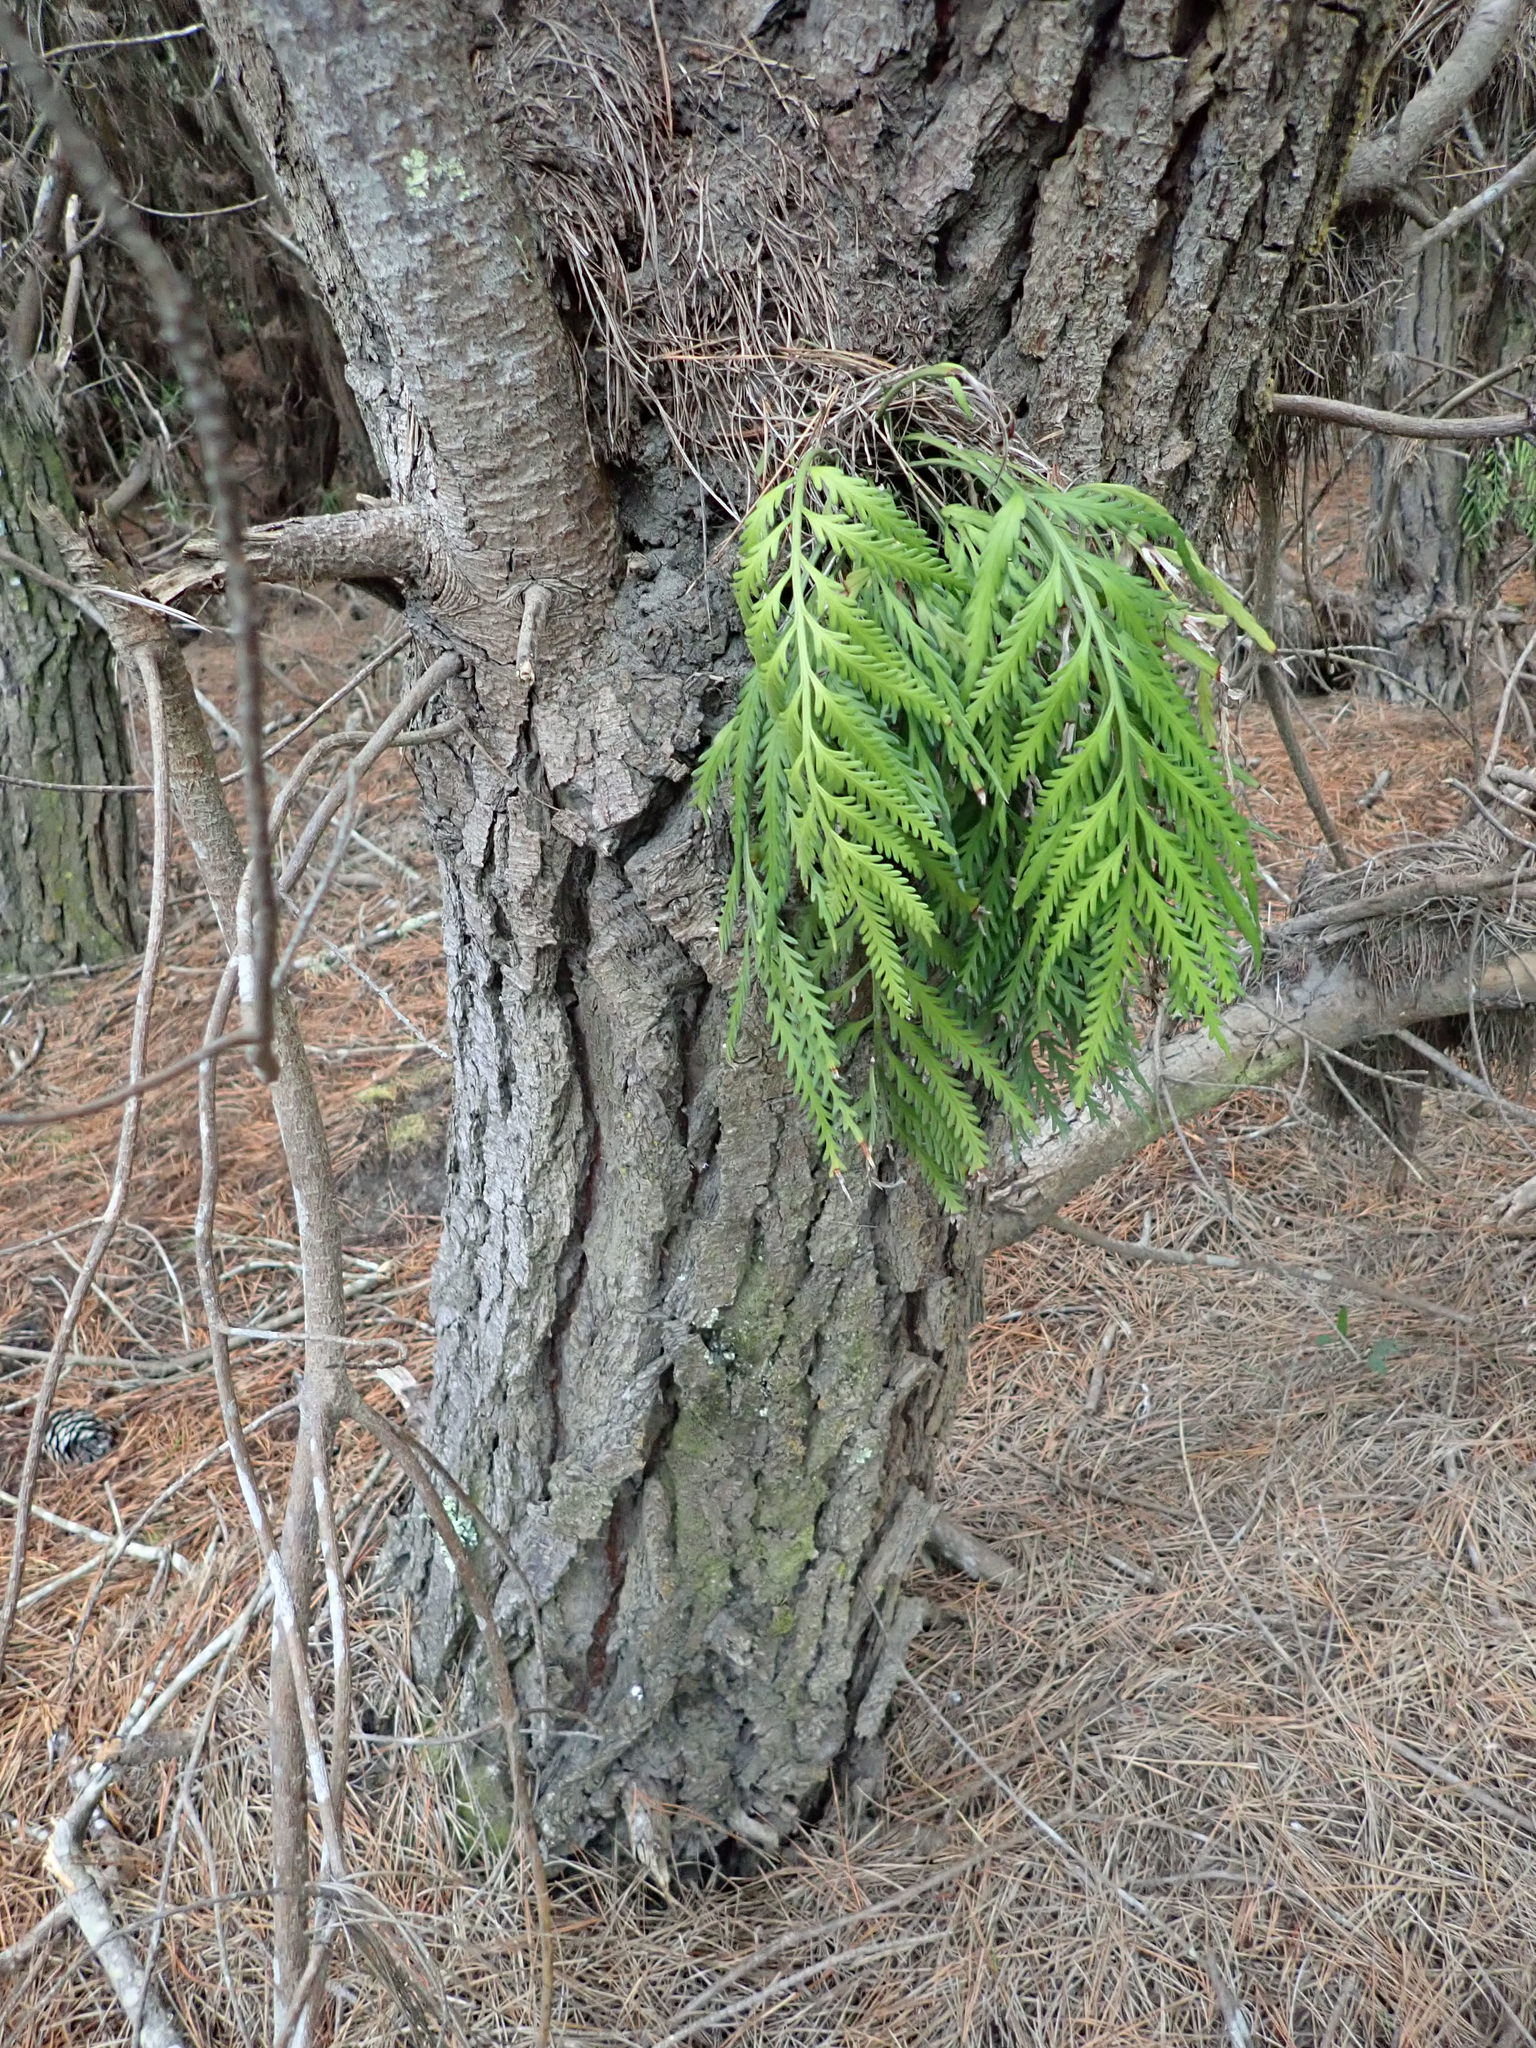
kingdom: Plantae
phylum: Tracheophyta
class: Polypodiopsida
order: Polypodiales
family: Aspleniaceae
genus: Asplenium
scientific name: Asplenium flaccidum
